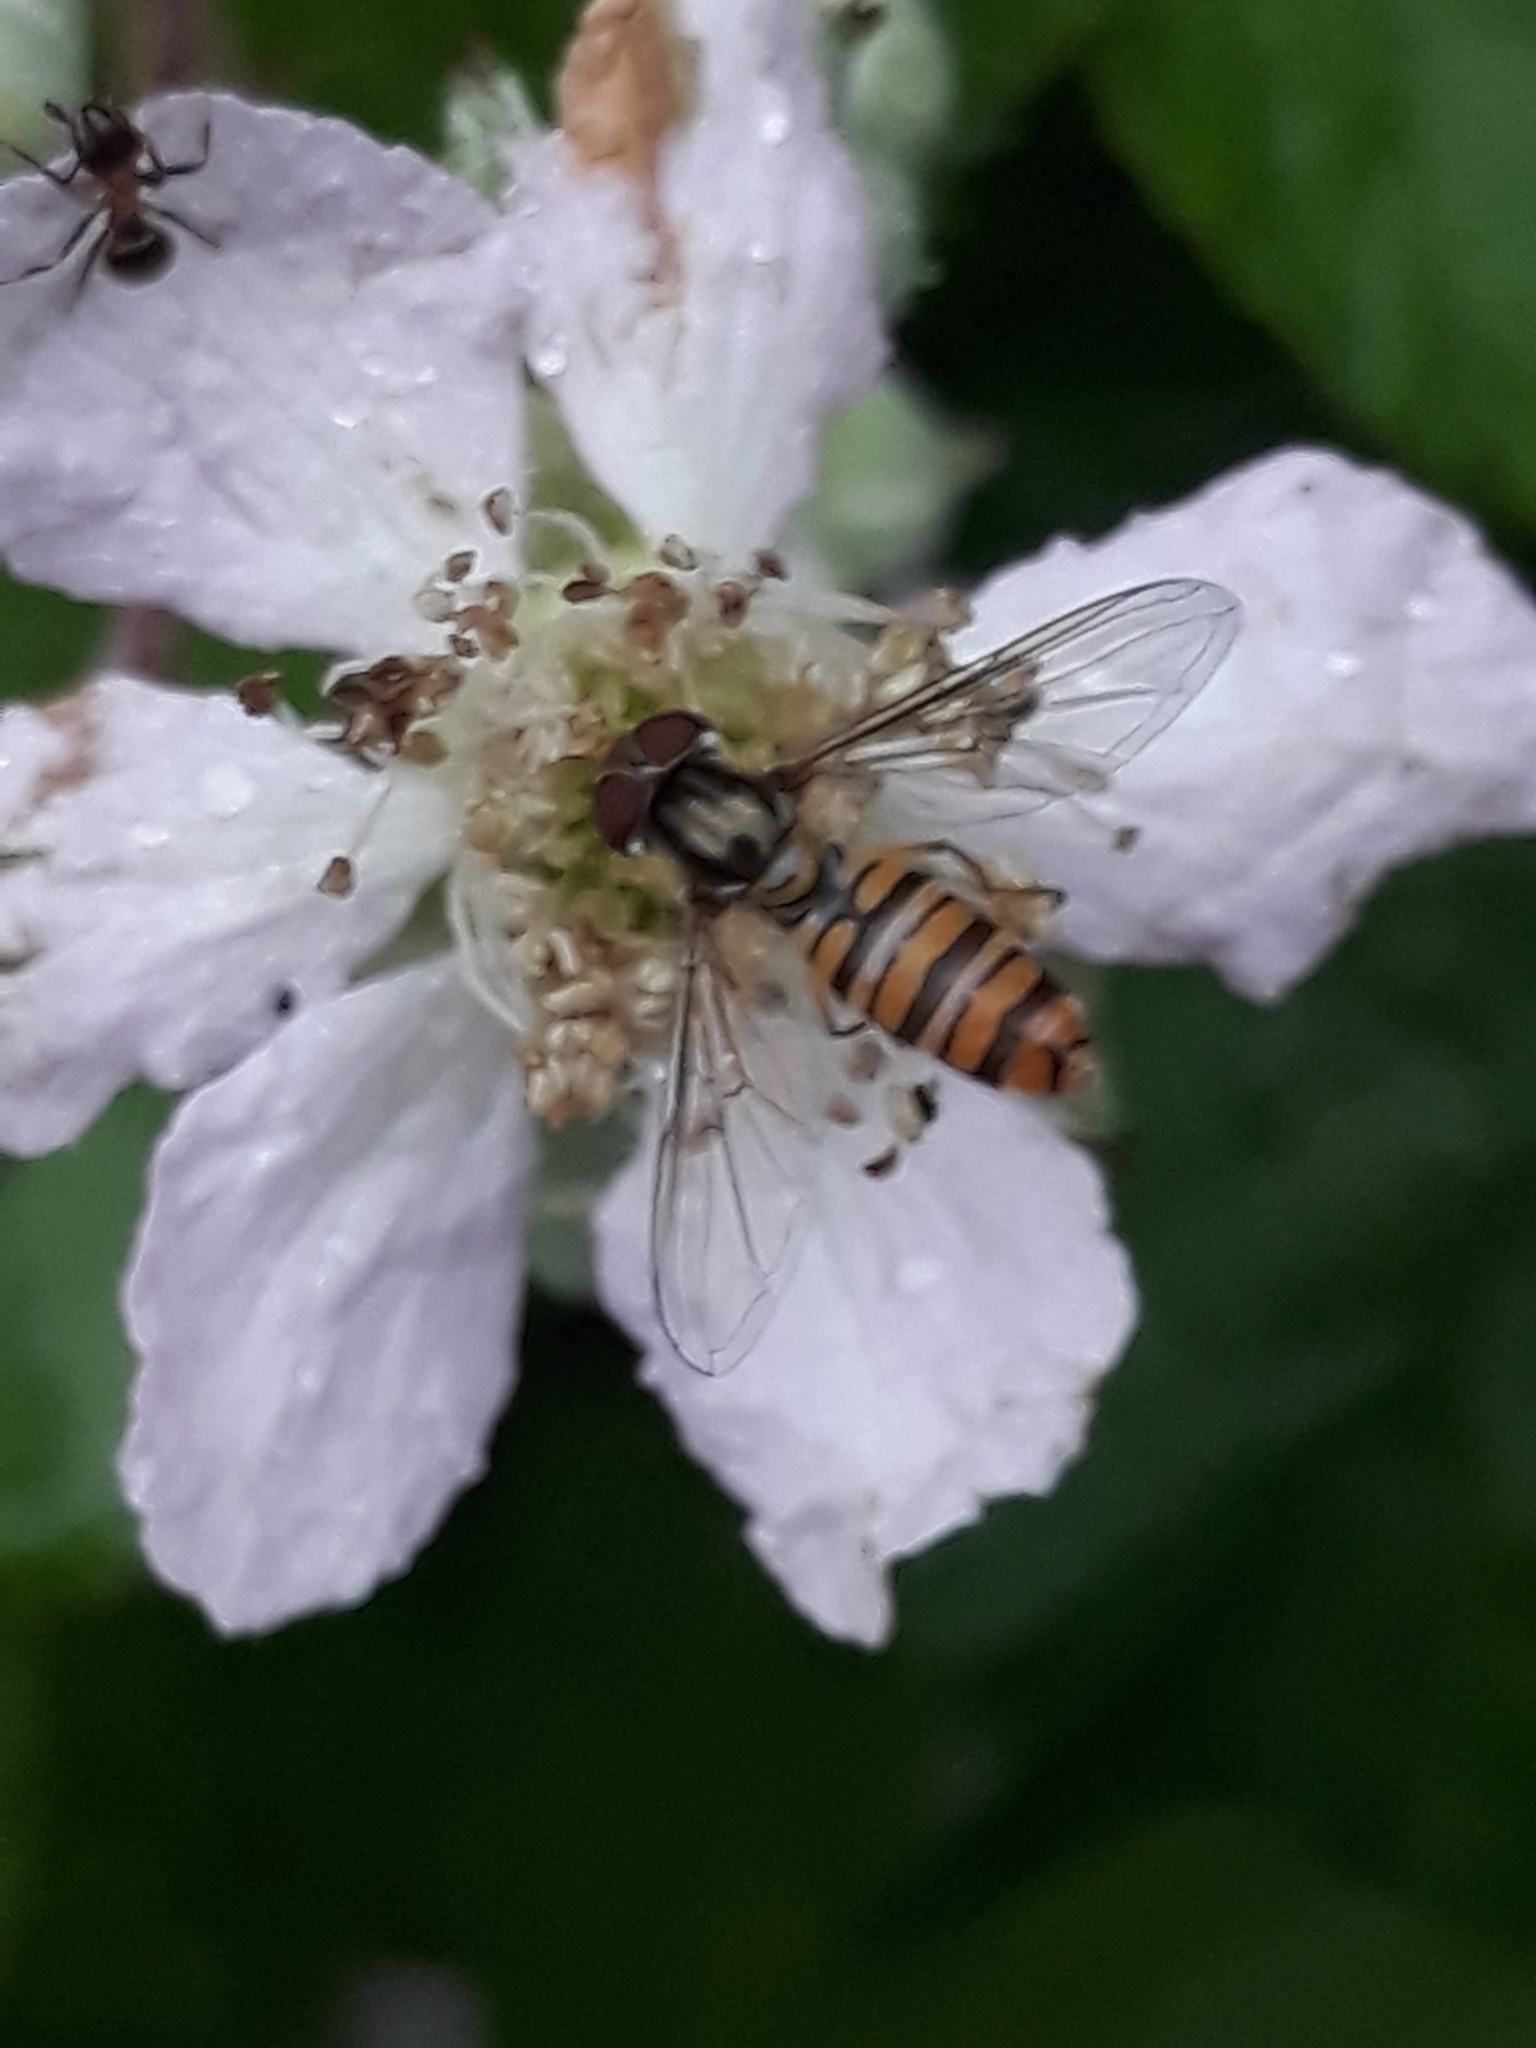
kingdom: Animalia
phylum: Arthropoda
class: Insecta
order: Diptera
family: Syrphidae
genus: Episyrphus
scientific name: Episyrphus balteatus
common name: Marmalade hoverfly
